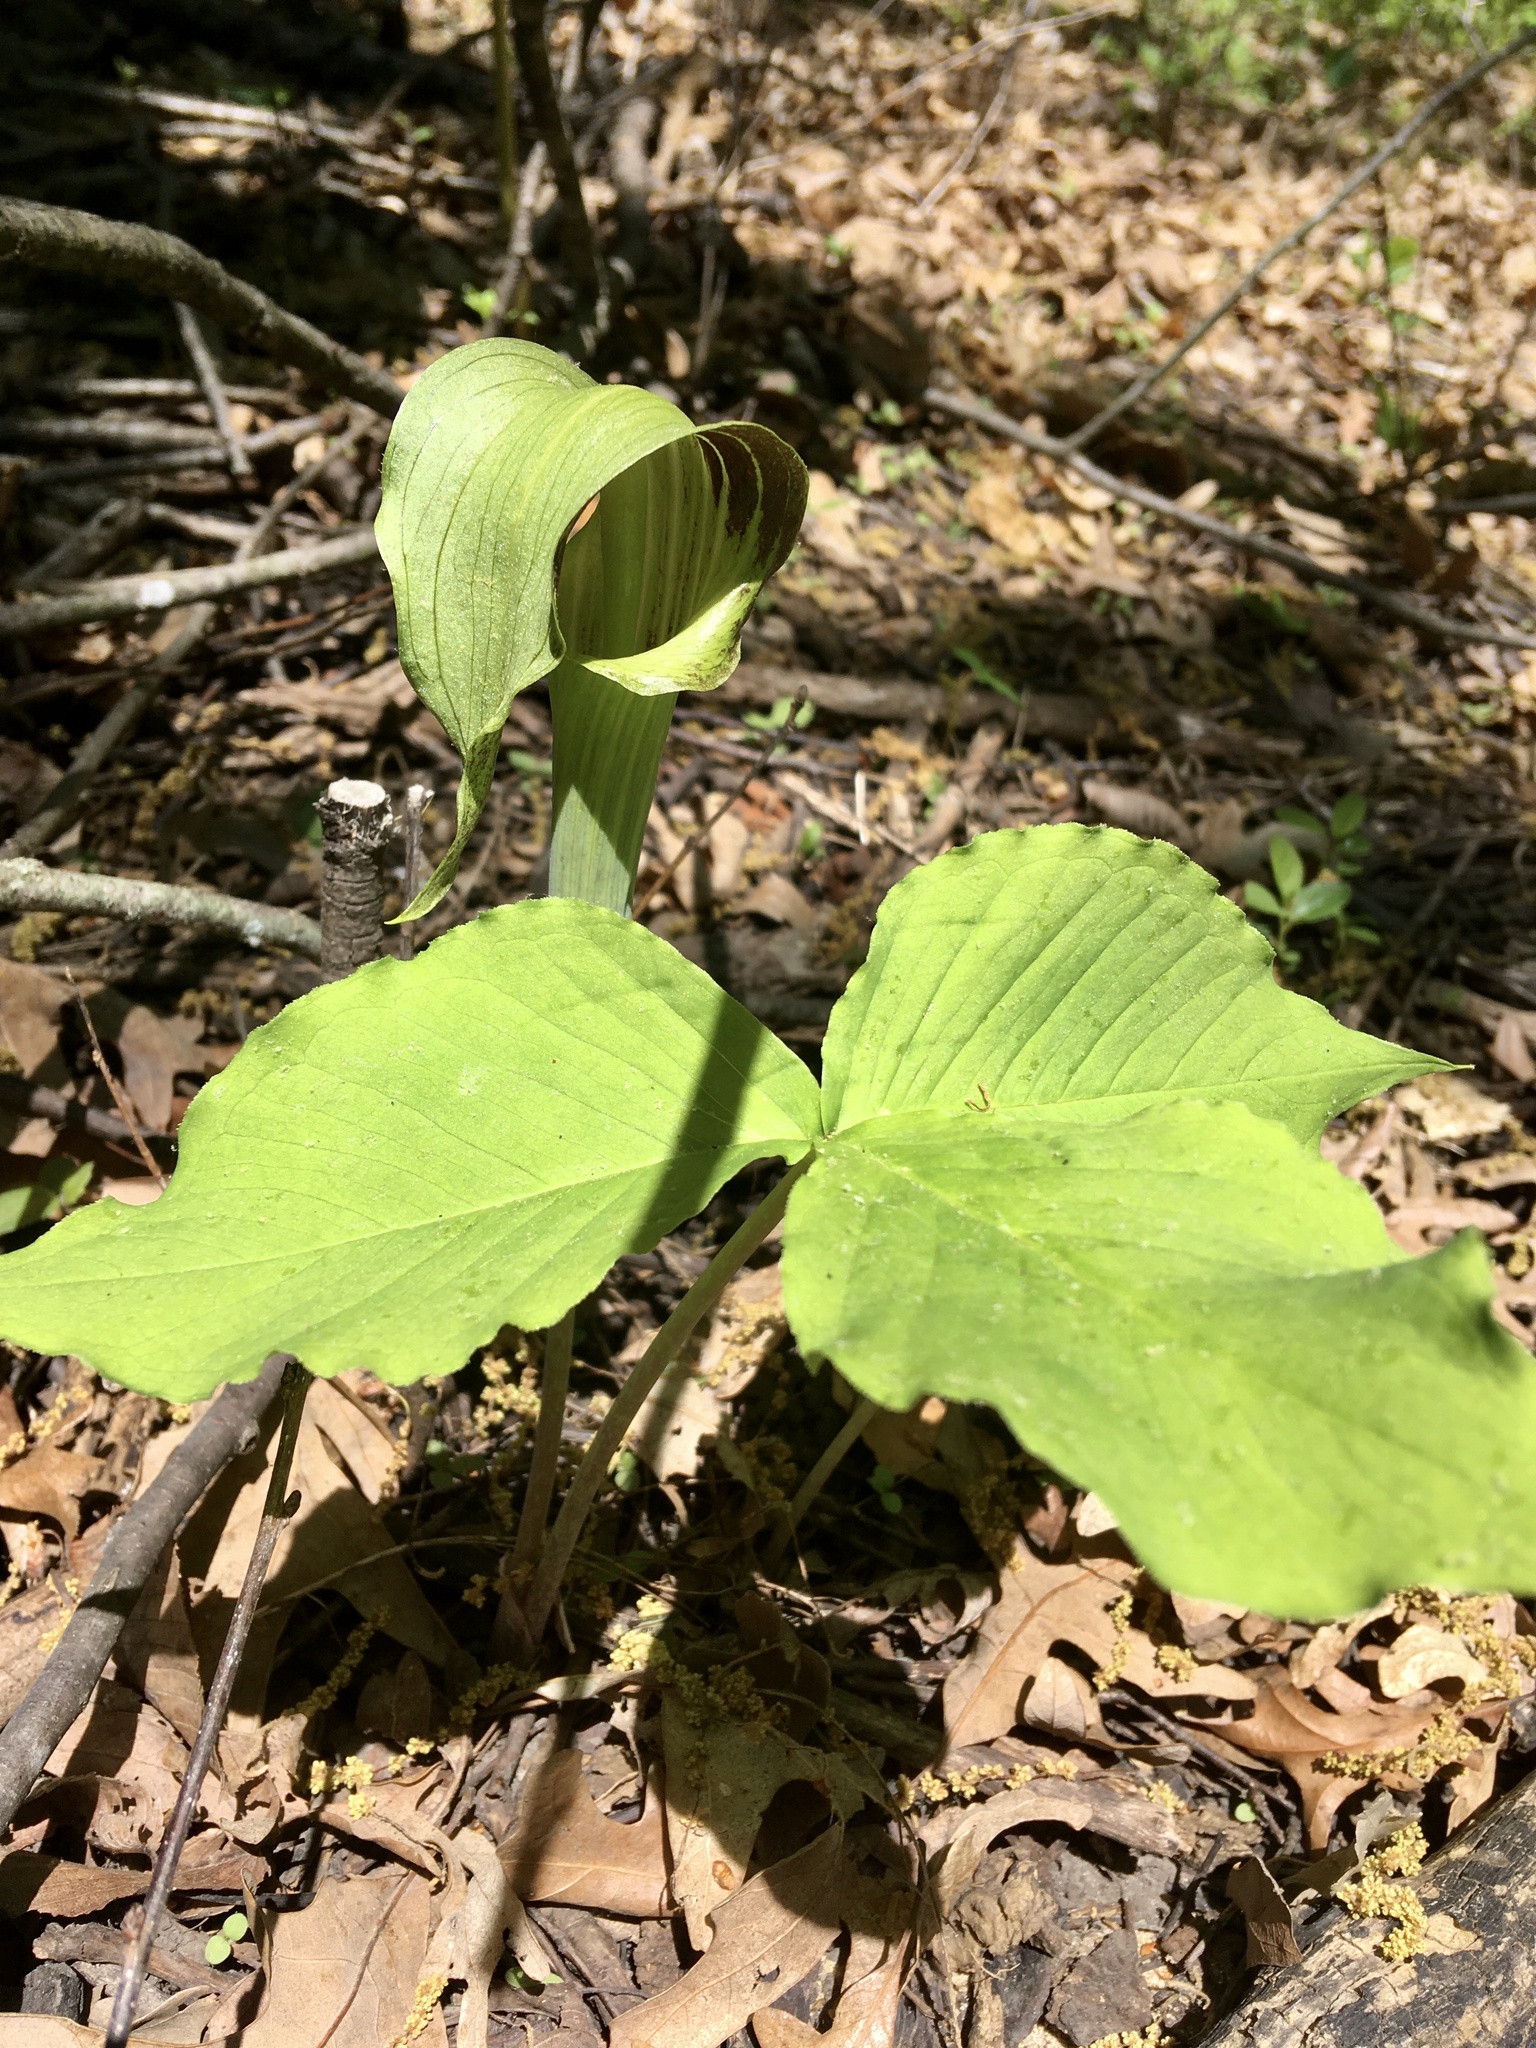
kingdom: Plantae
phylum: Tracheophyta
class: Liliopsida
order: Alismatales
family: Araceae
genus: Arisaema
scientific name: Arisaema triphyllum
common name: Jack-in-the-pulpit
